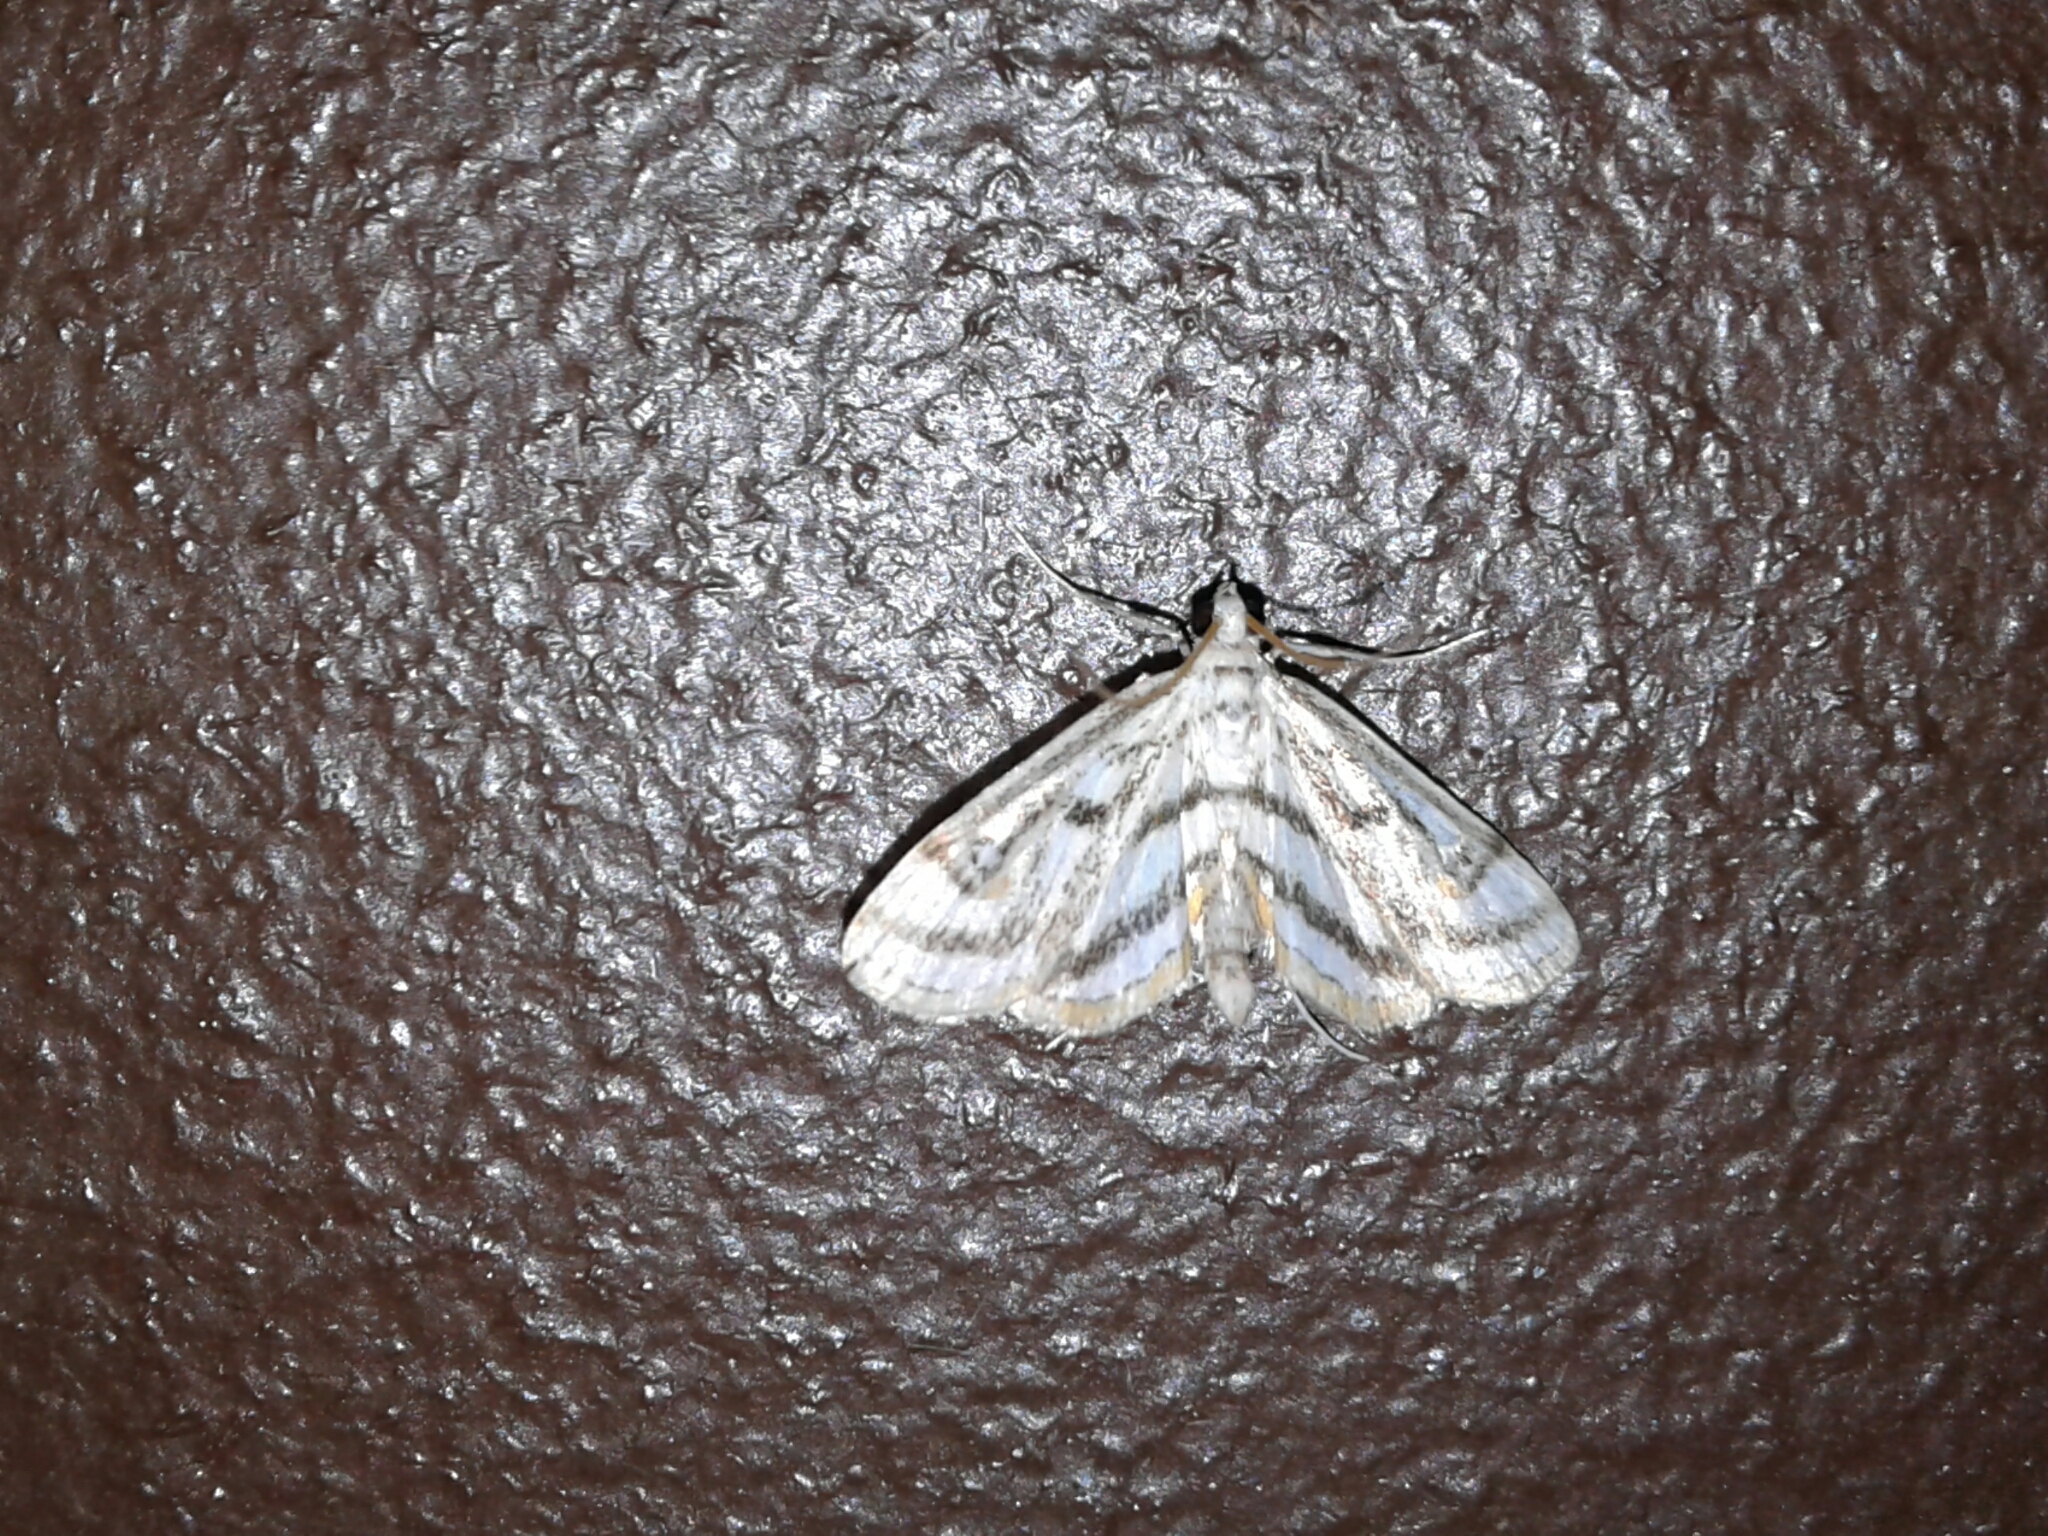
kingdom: Animalia
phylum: Arthropoda
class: Insecta
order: Lepidoptera
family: Crambidae
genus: Parapoynx
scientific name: Parapoynx badiusalis
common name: Chestnut-marked pondweed moth
